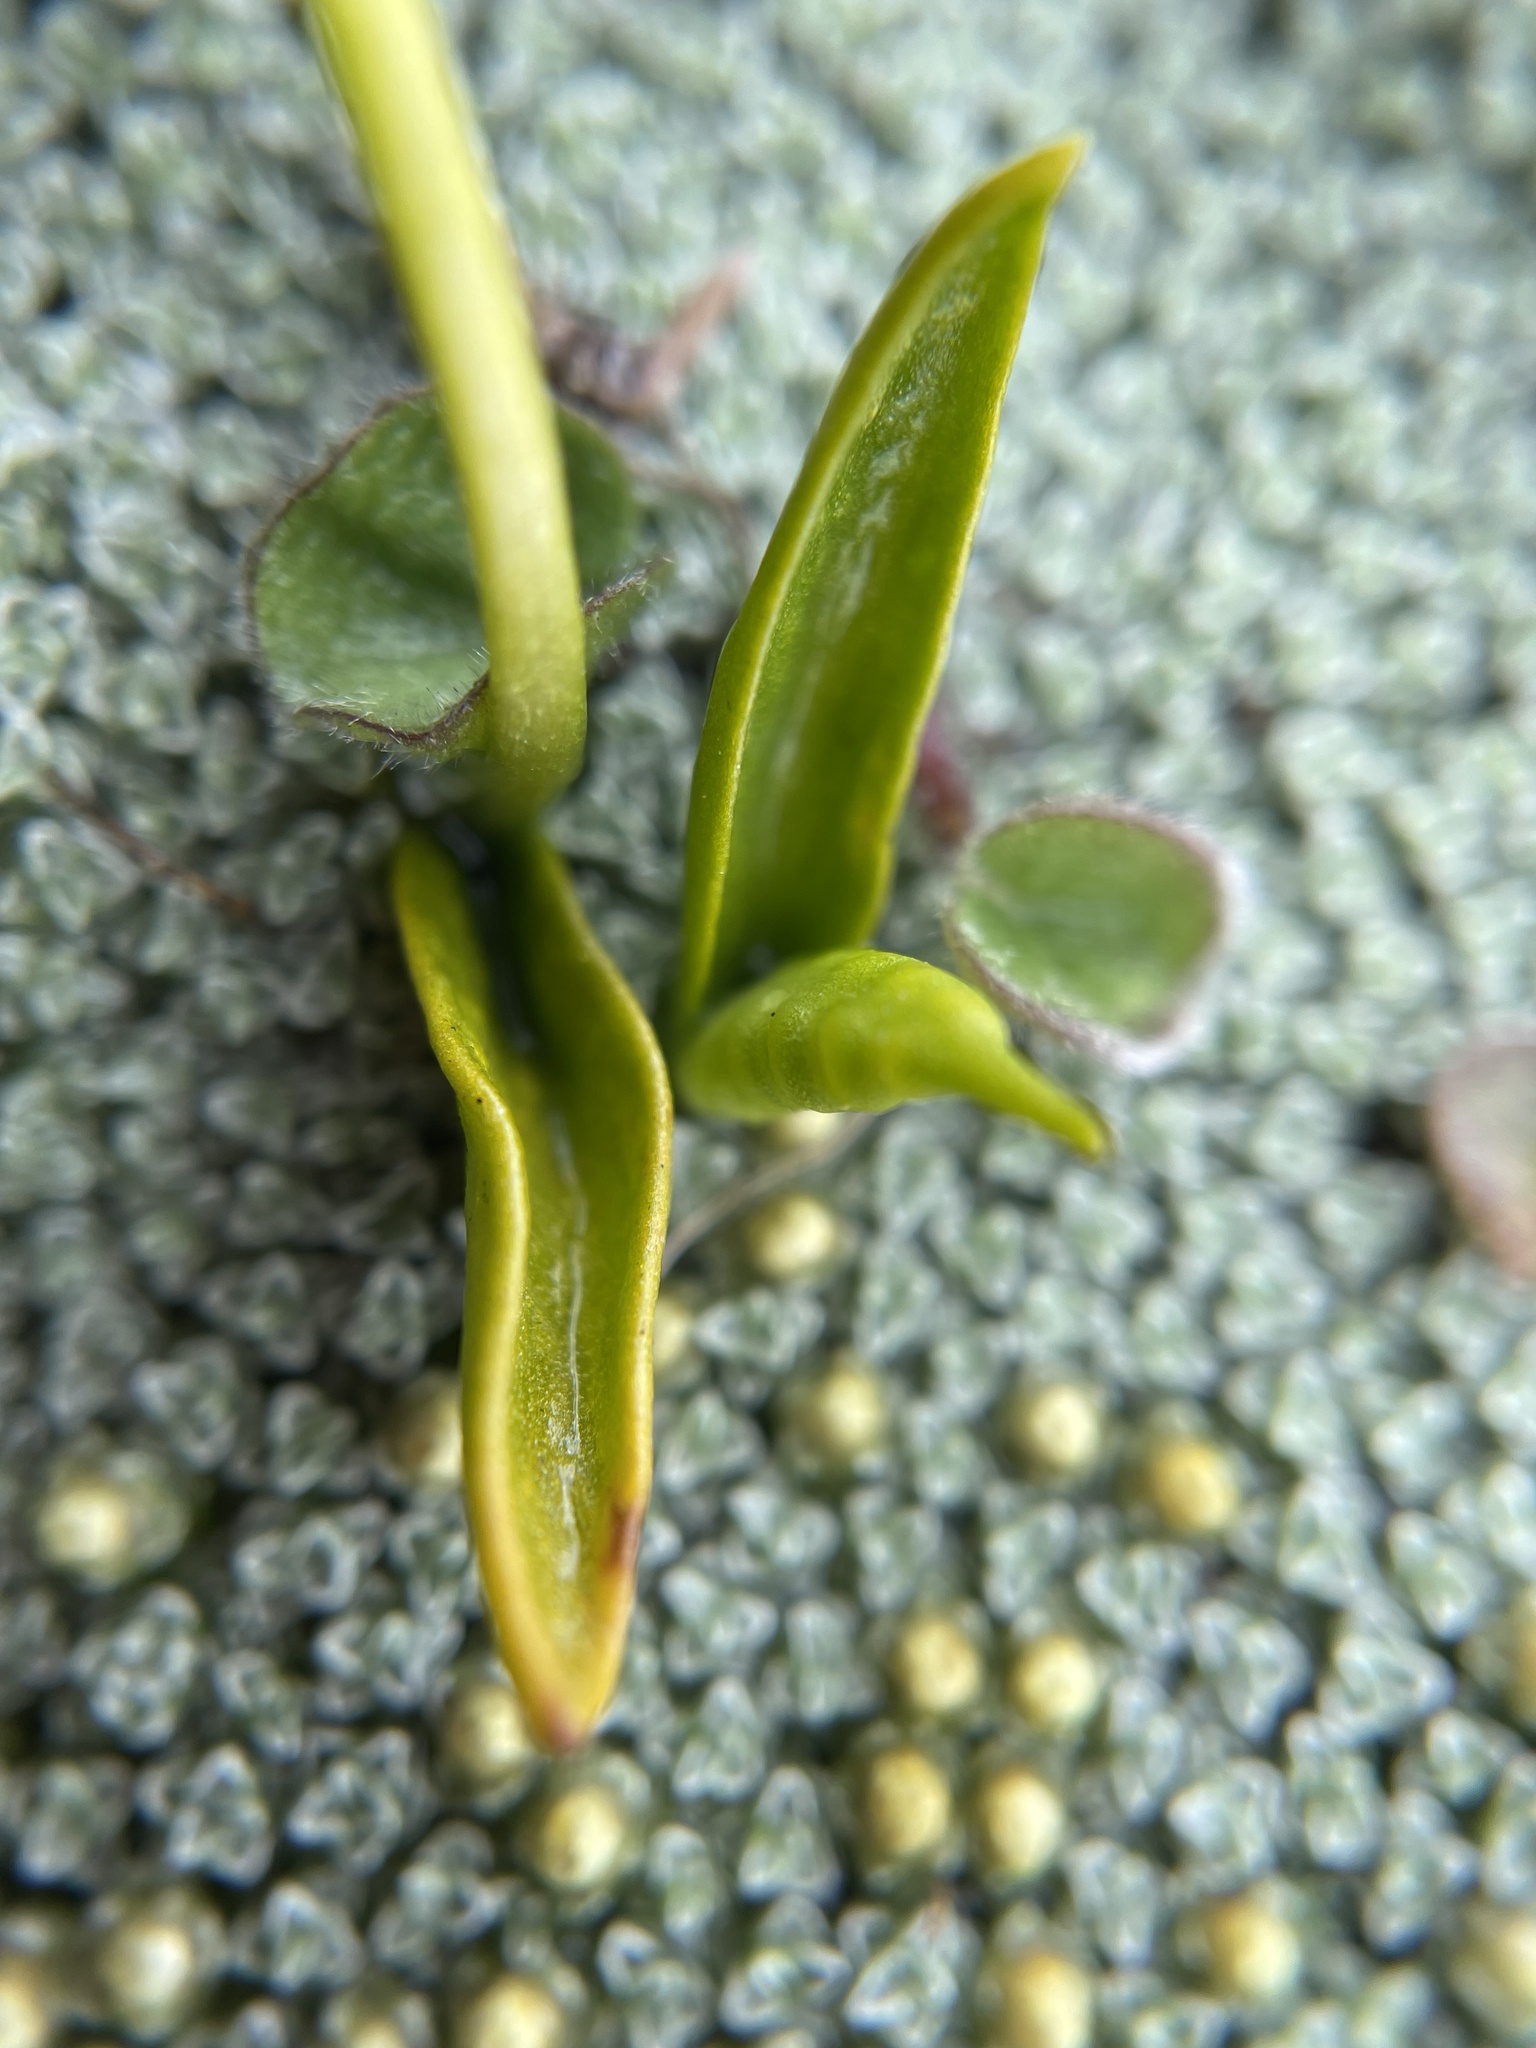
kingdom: Plantae
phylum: Tracheophyta
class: Polypodiopsida
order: Ophioglossales
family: Ophioglossaceae
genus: Ophioglossum
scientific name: Ophioglossum coriaceum
